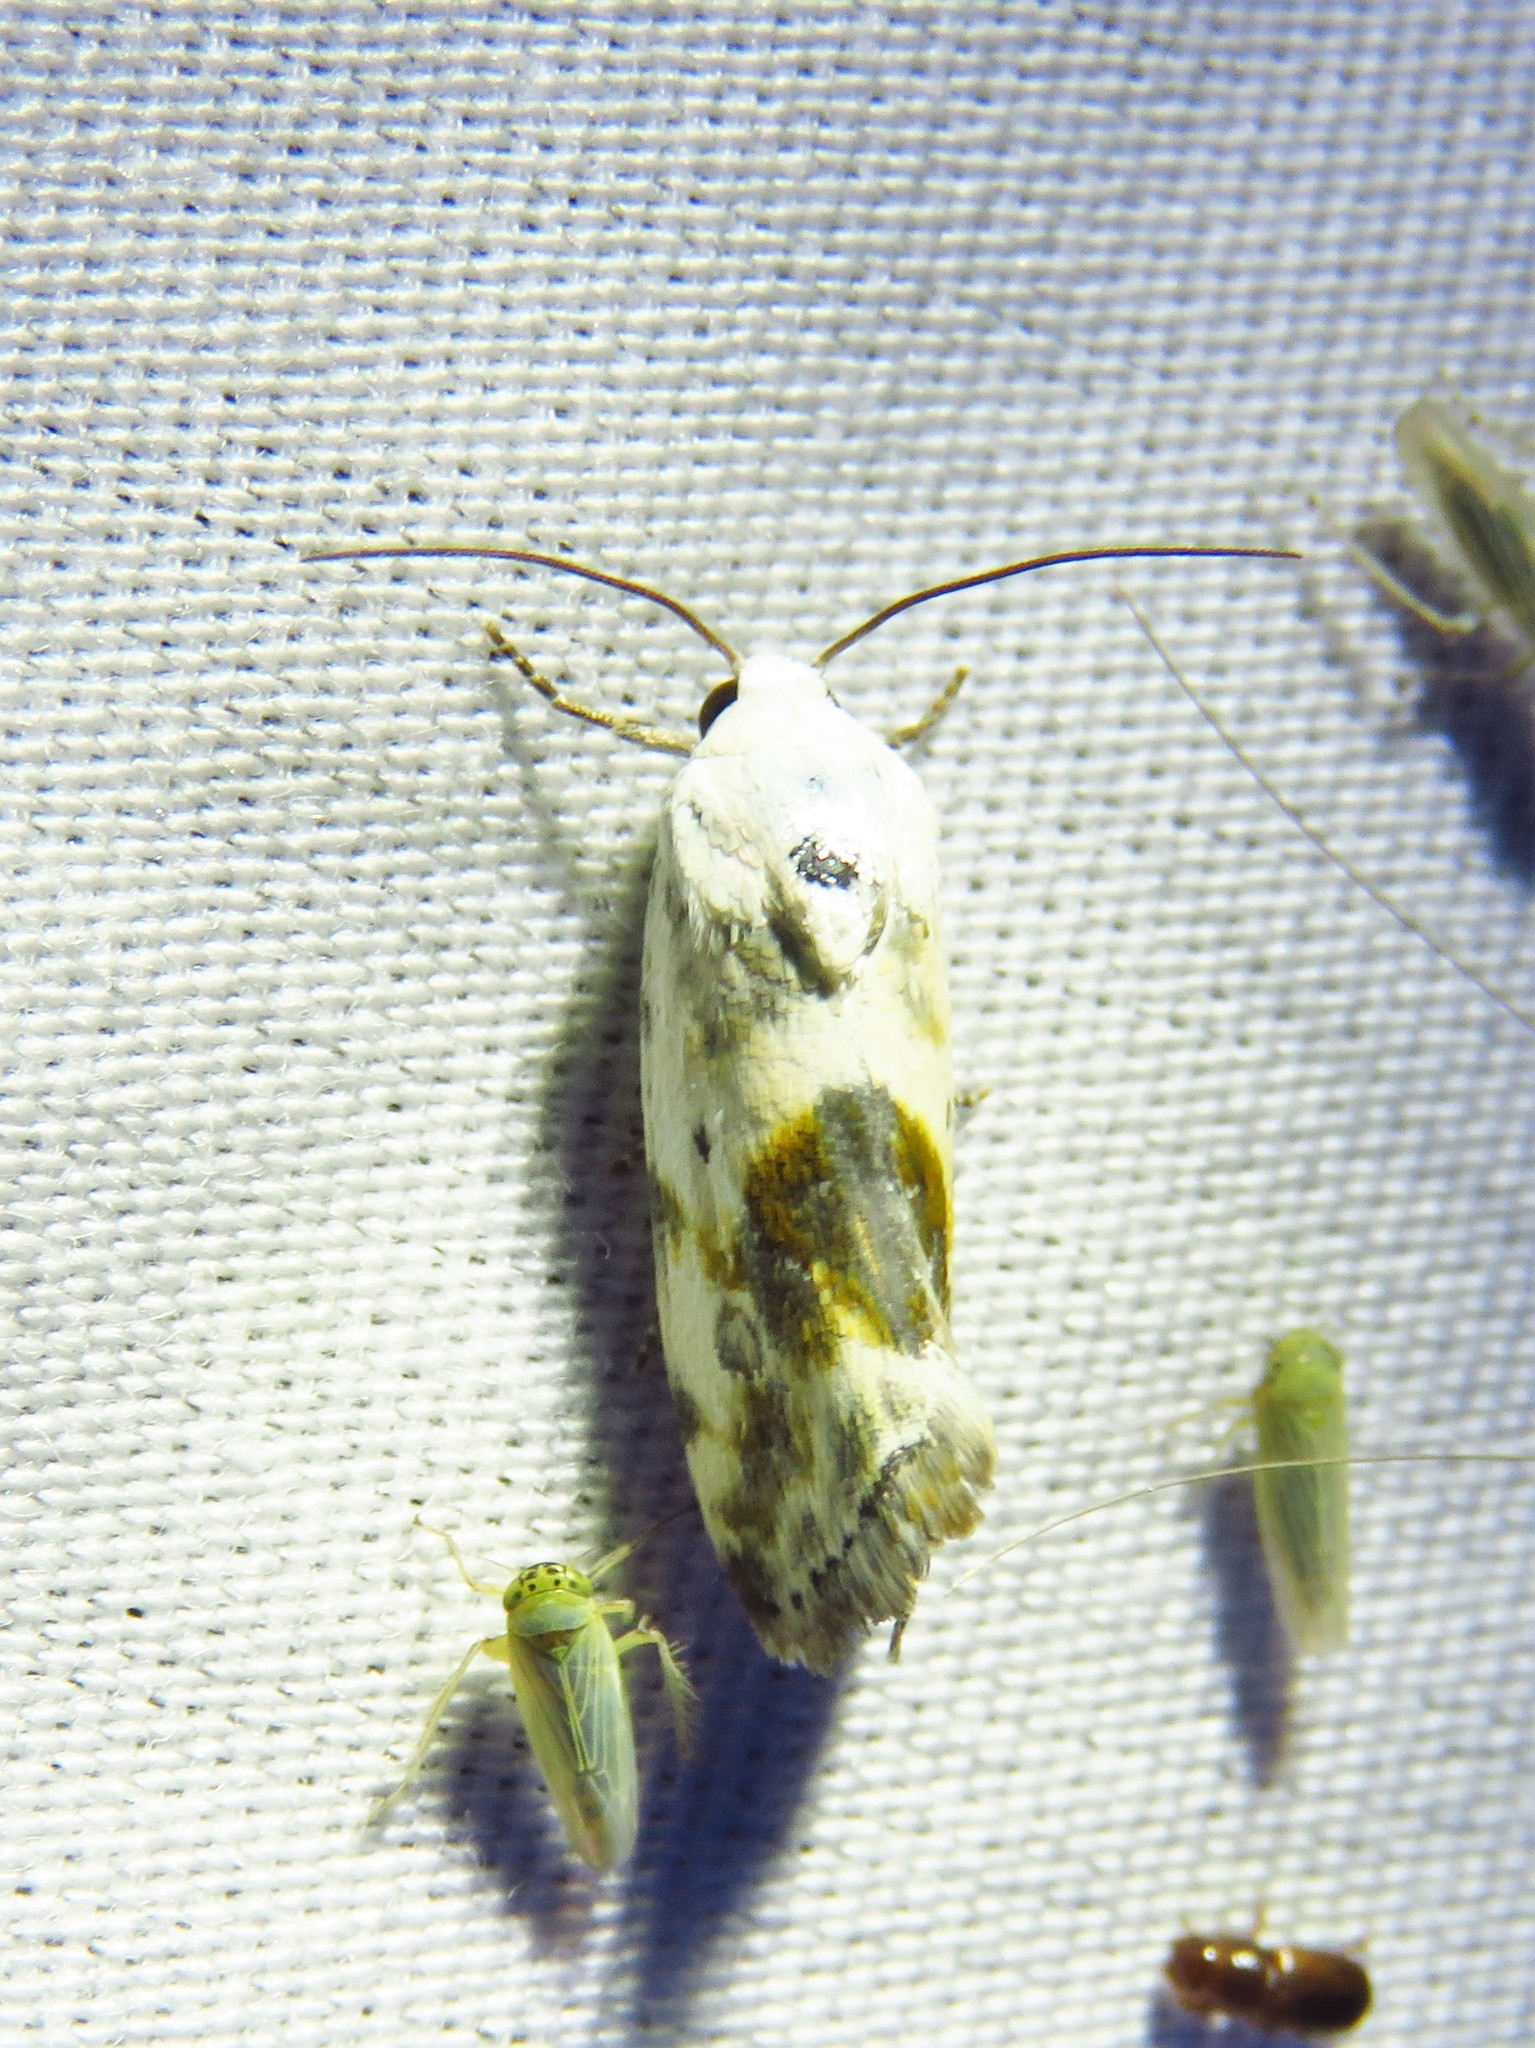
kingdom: Animalia
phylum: Arthropoda
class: Insecta
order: Lepidoptera
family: Noctuidae
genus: Acontia
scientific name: Acontia candefacta
